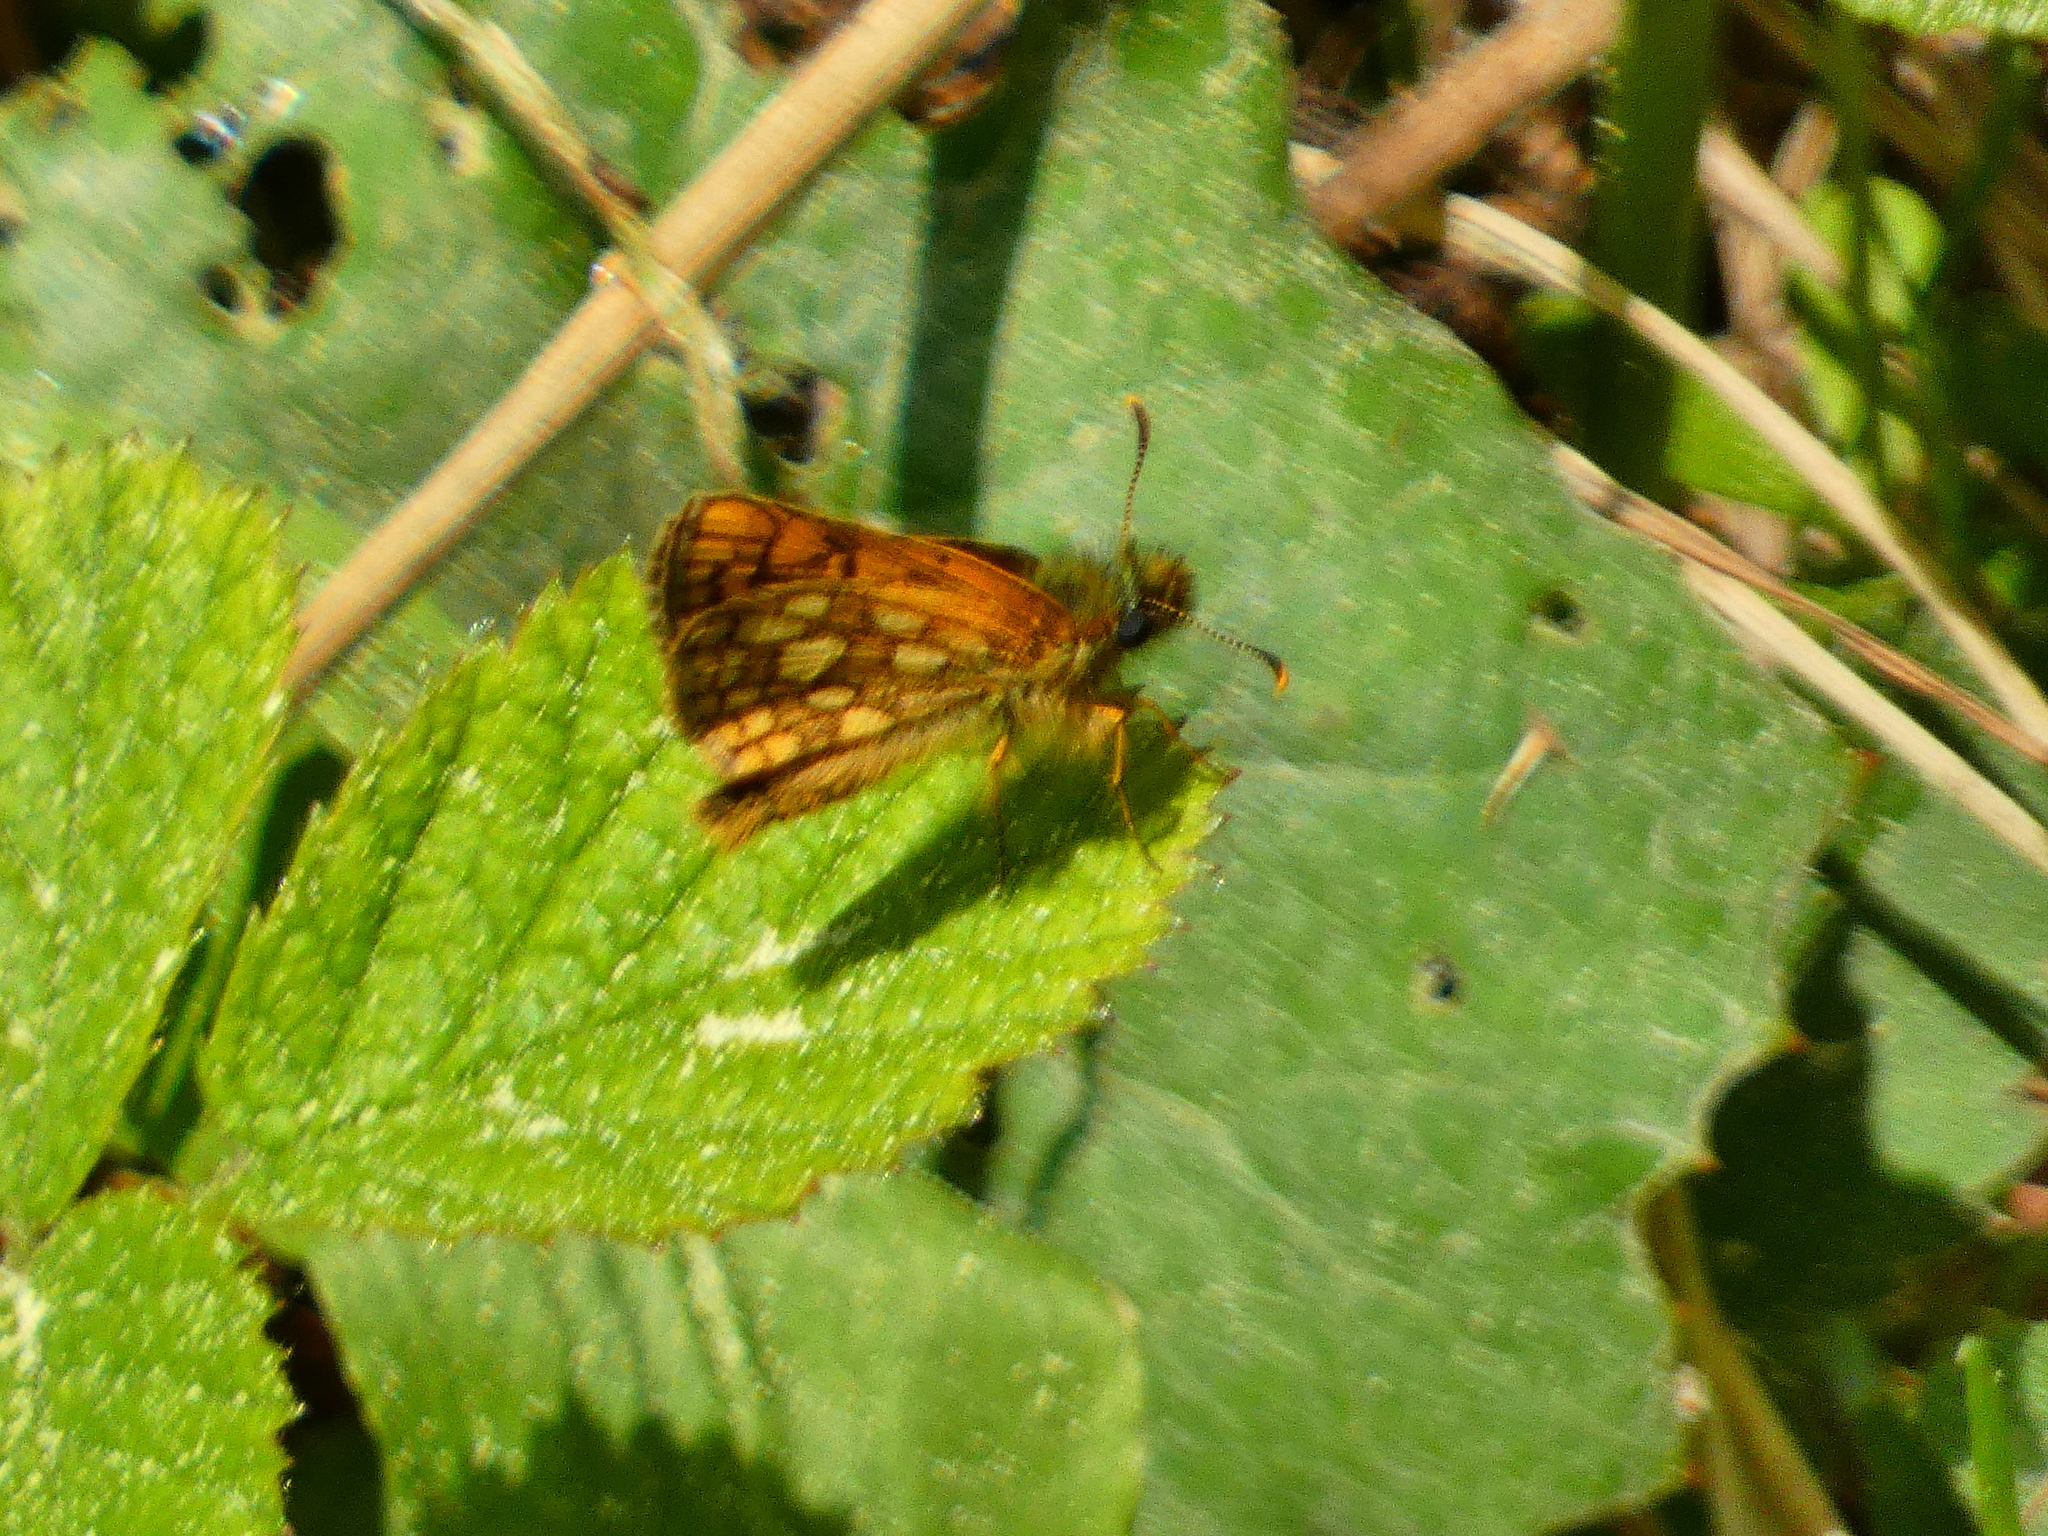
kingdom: Animalia
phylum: Arthropoda
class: Insecta
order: Lepidoptera
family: Hesperiidae
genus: Carterocephalus
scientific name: Carterocephalus palaemon
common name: Chequered skipper
